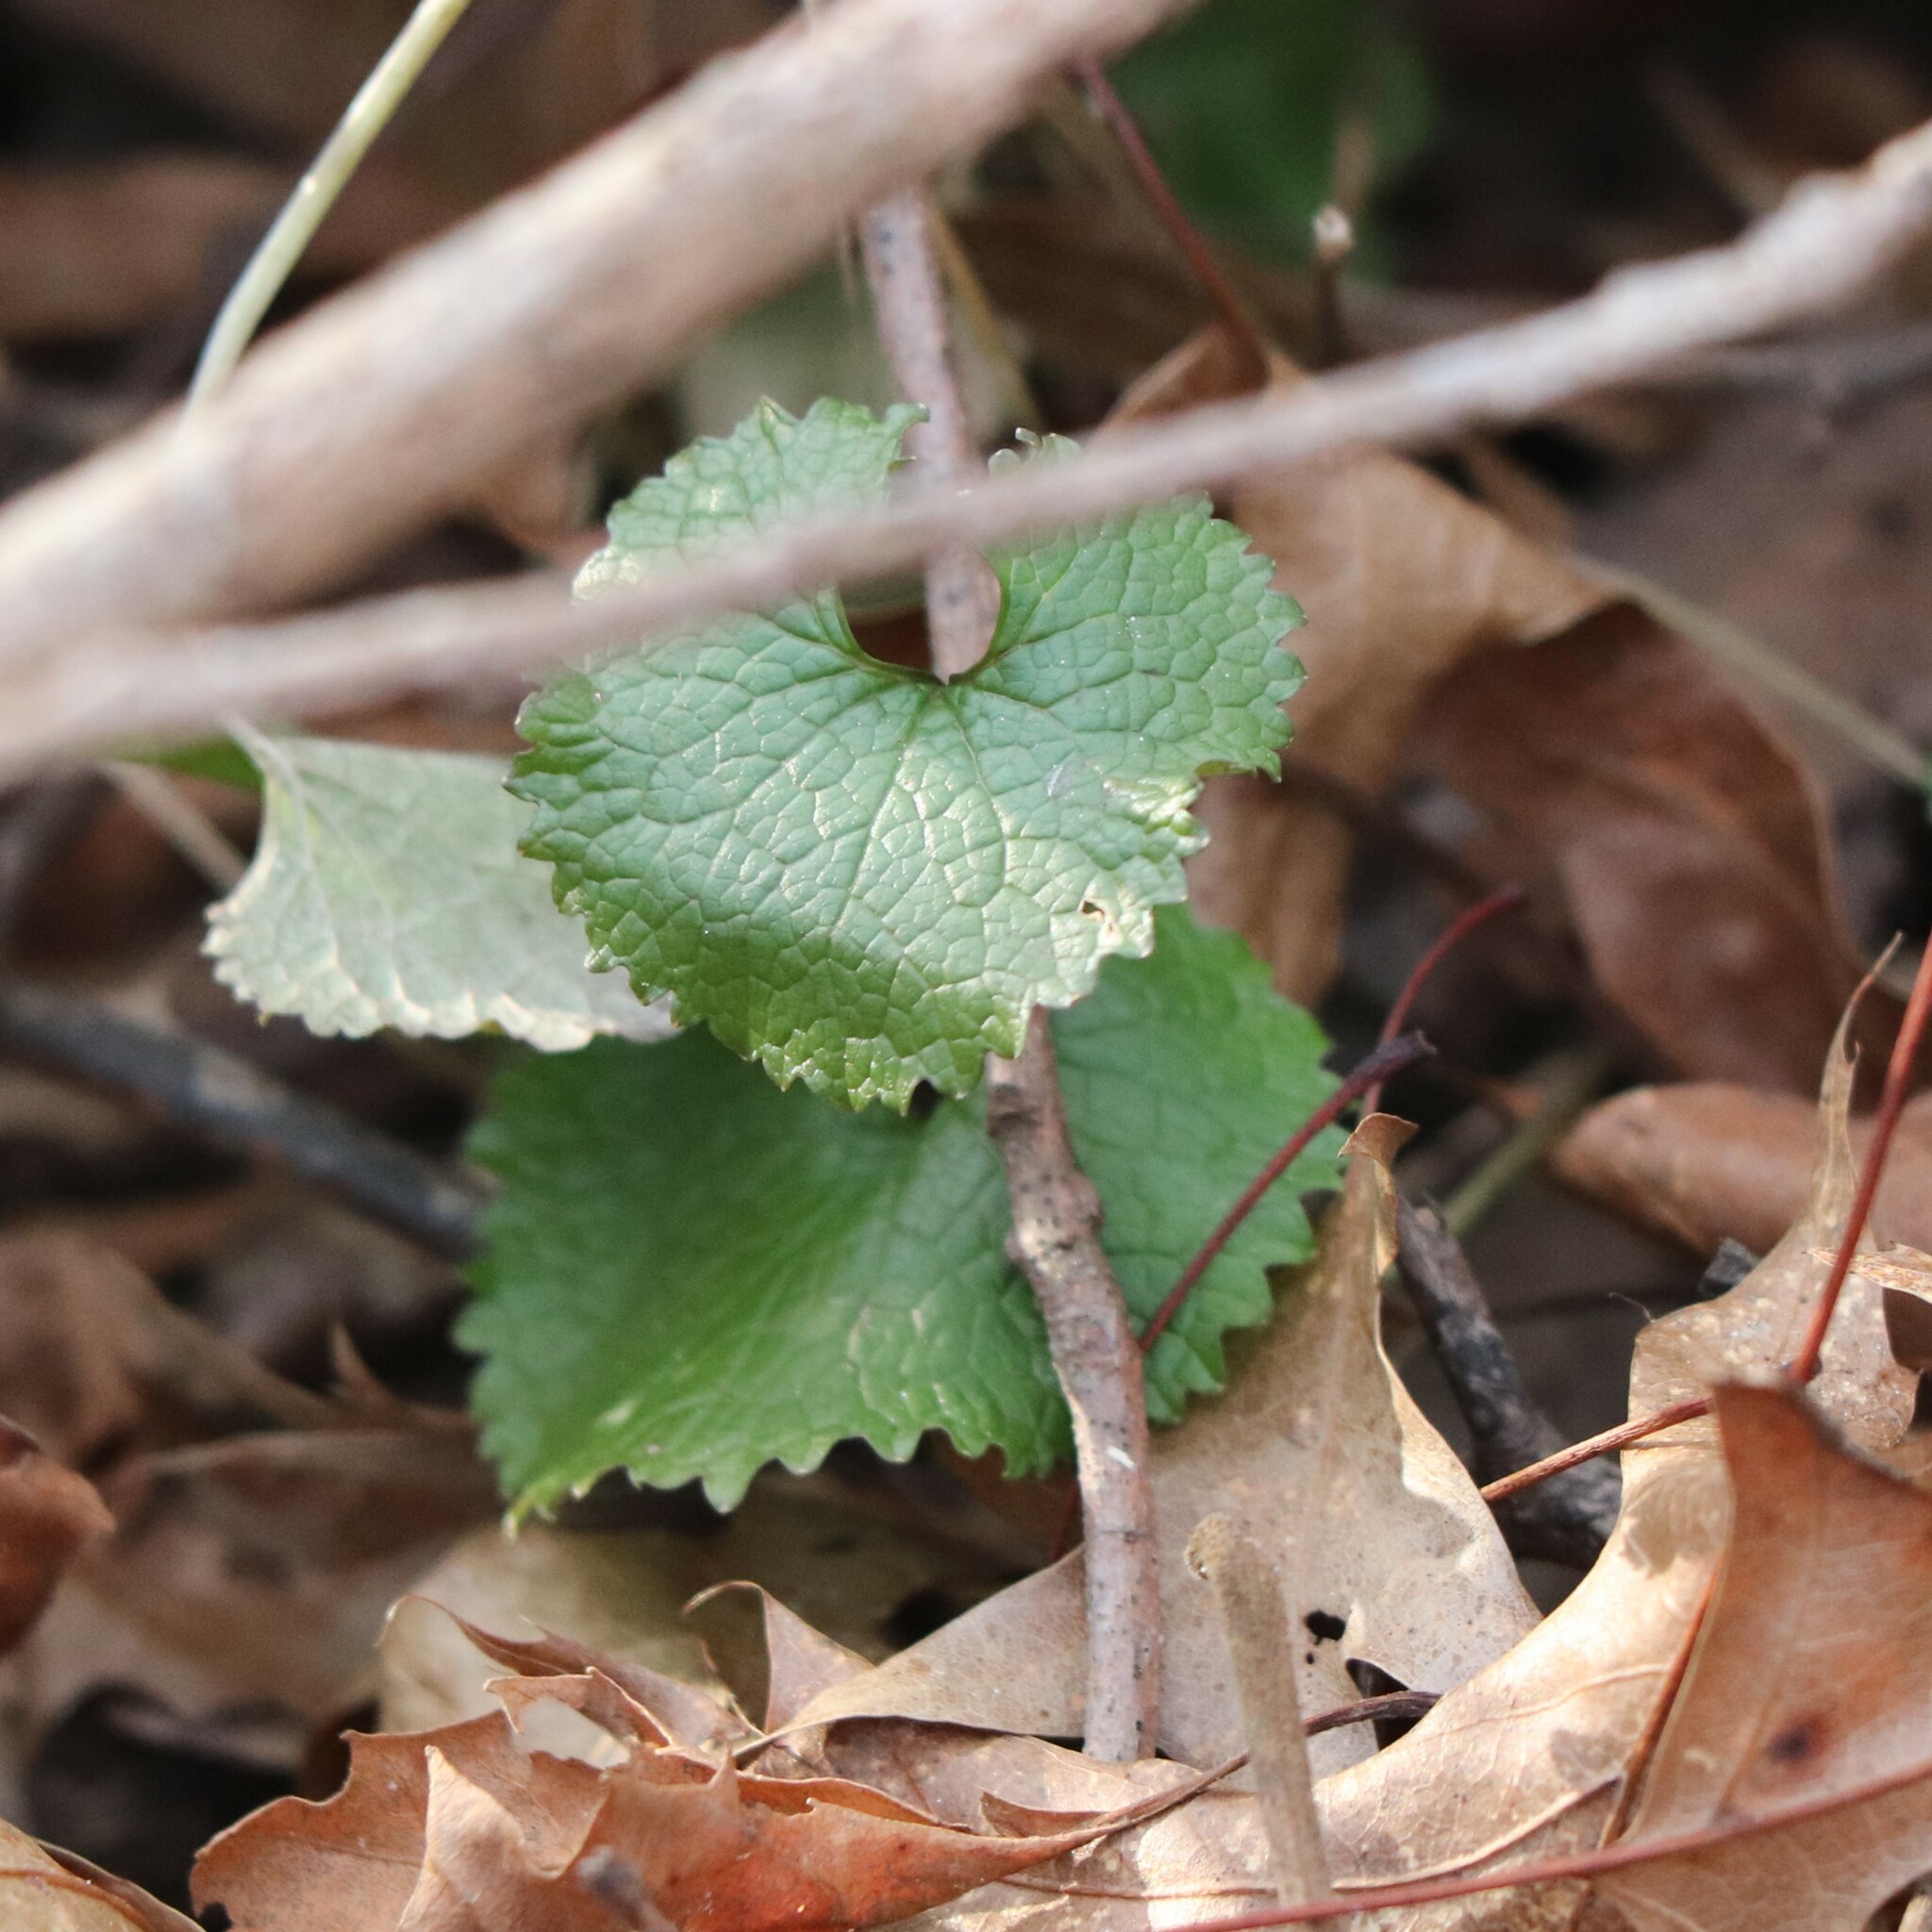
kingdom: Plantae
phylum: Tracheophyta
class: Magnoliopsida
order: Brassicales
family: Brassicaceae
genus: Alliaria
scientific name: Alliaria petiolata
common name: Garlic mustard
